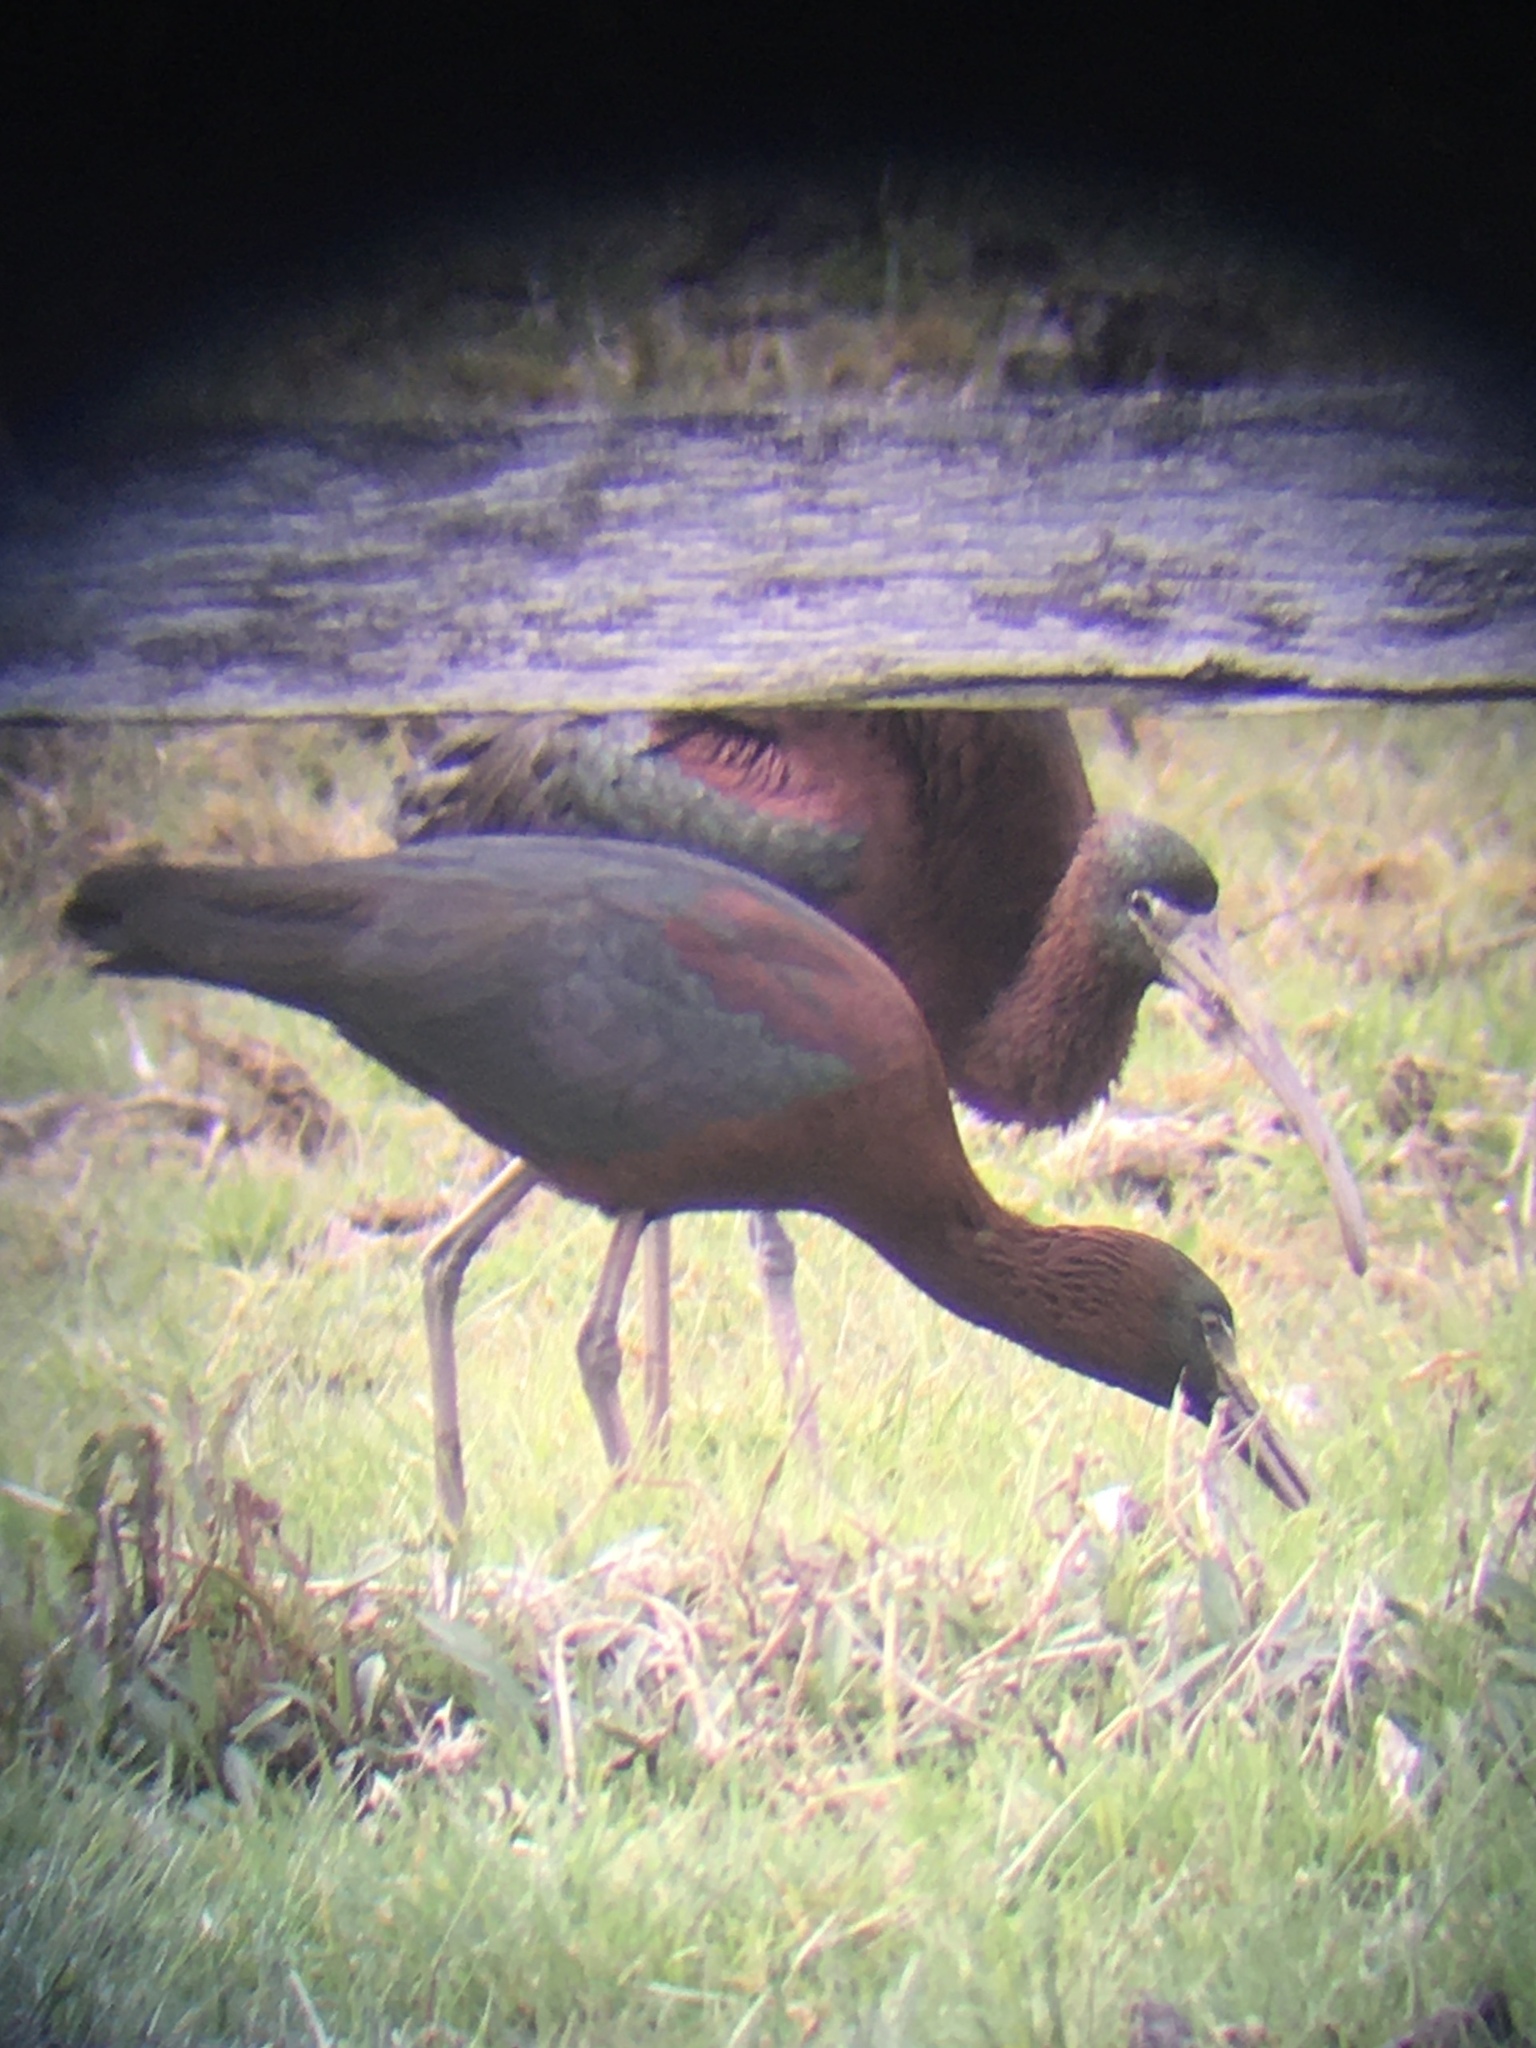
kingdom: Animalia
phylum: Chordata
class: Aves
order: Pelecaniformes
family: Threskiornithidae
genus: Plegadis
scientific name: Plegadis falcinellus
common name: Glossy ibis
